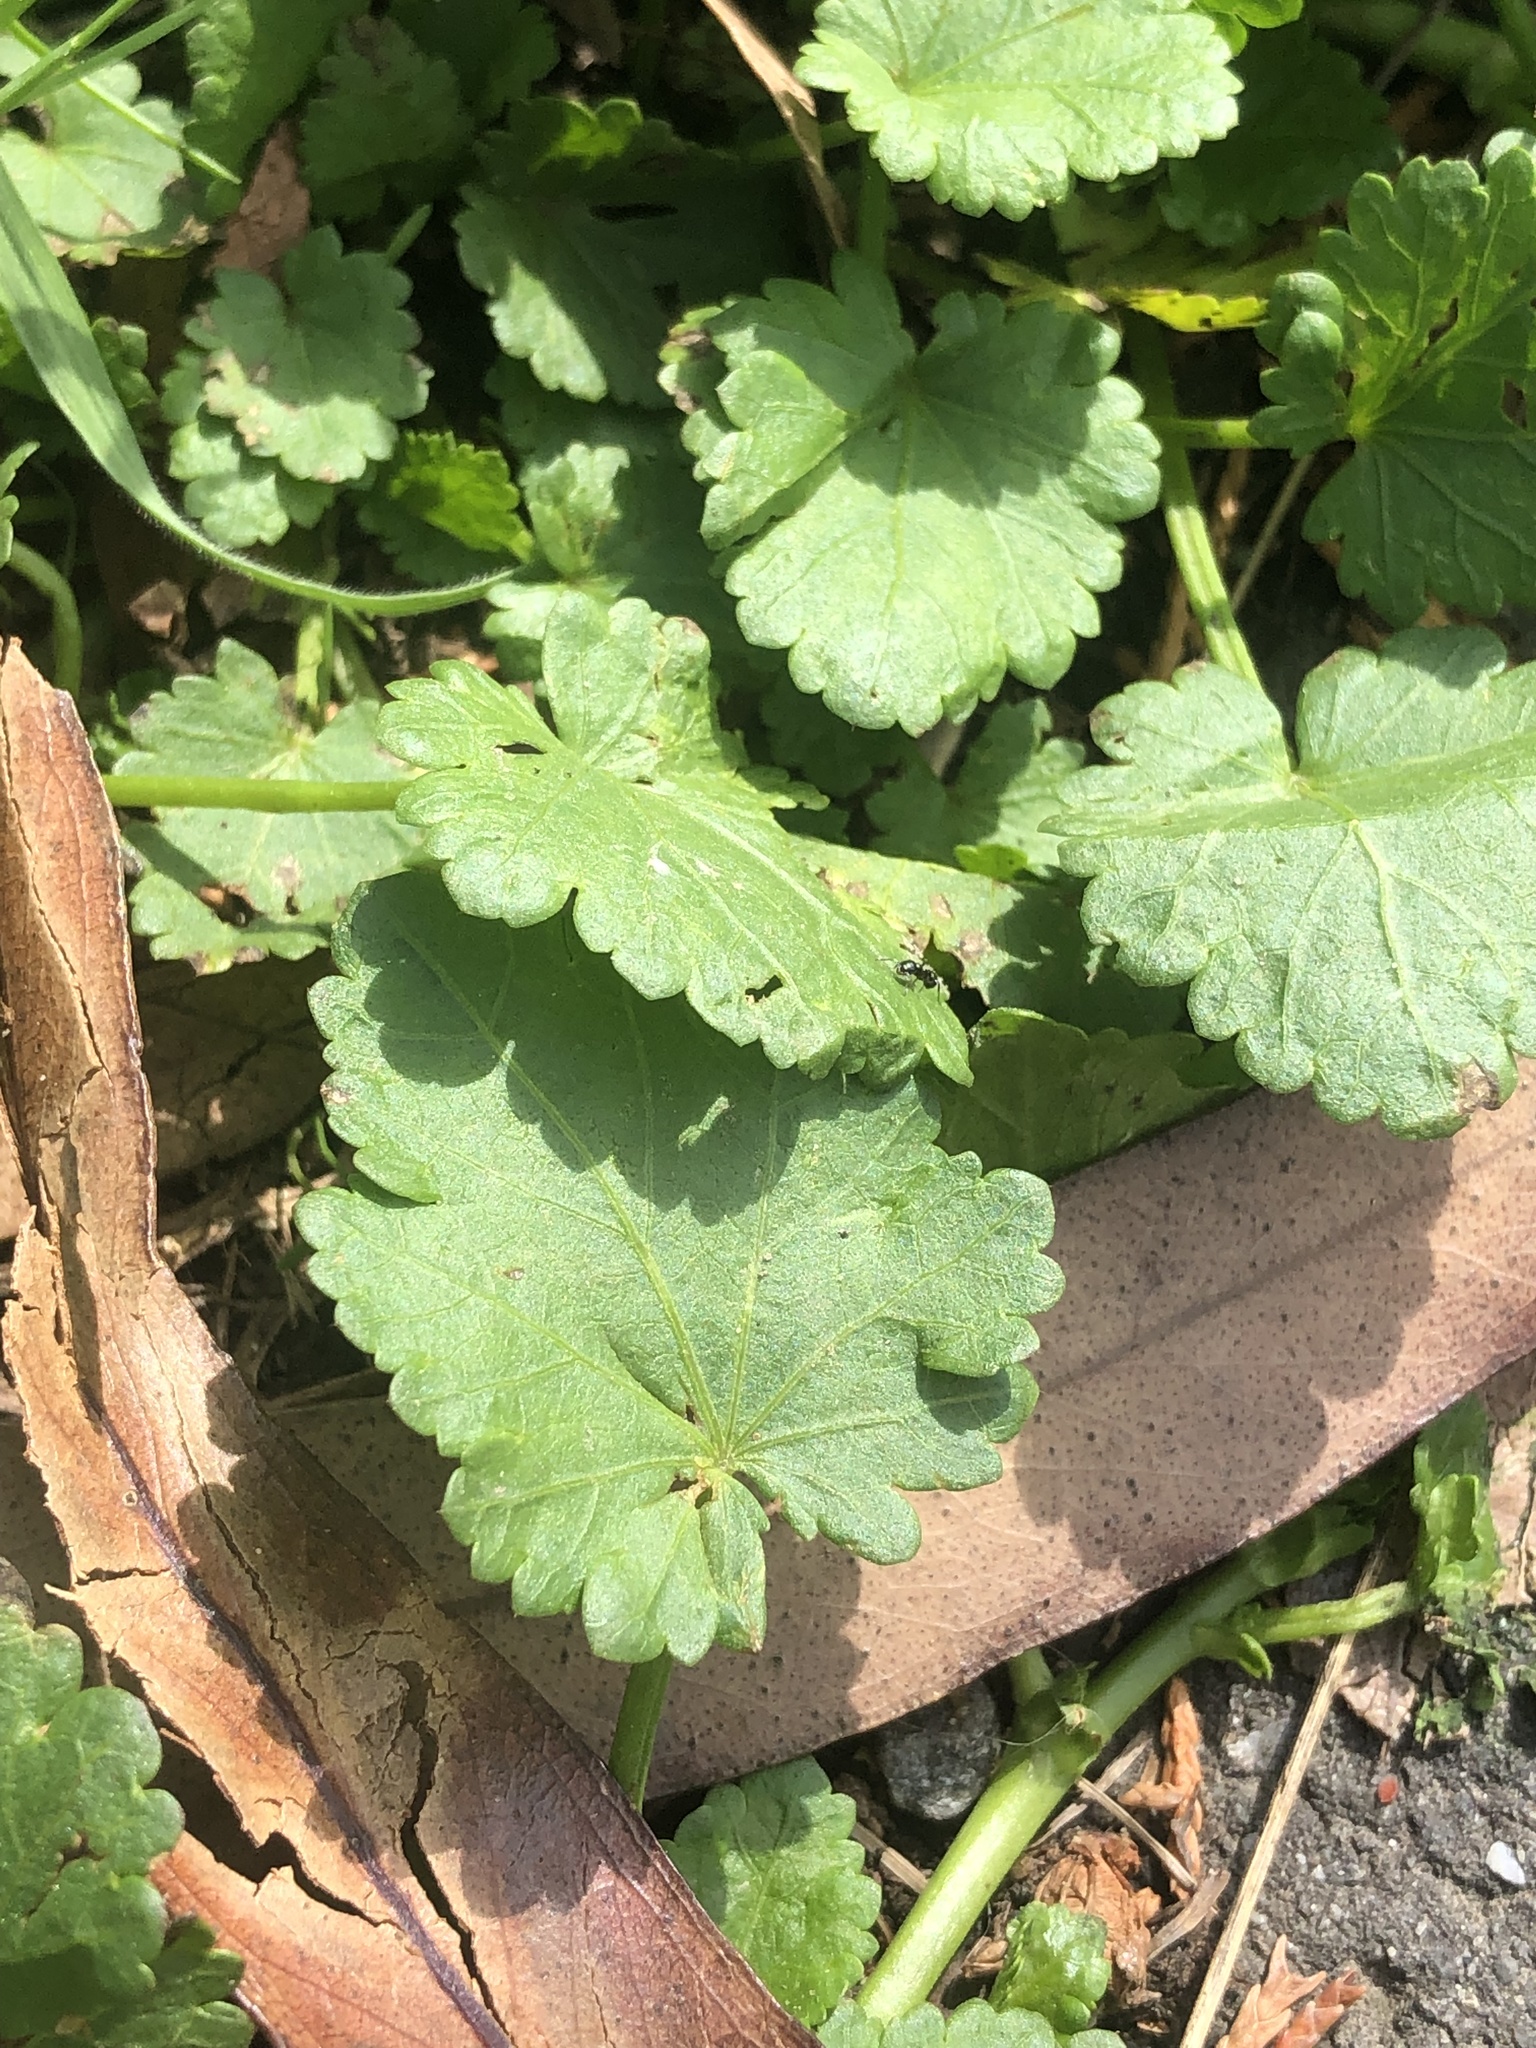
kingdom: Plantae
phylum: Tracheophyta
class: Magnoliopsida
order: Malvales
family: Malvaceae
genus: Modiola
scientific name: Modiola caroliniana
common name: Carolina bristlemallow
